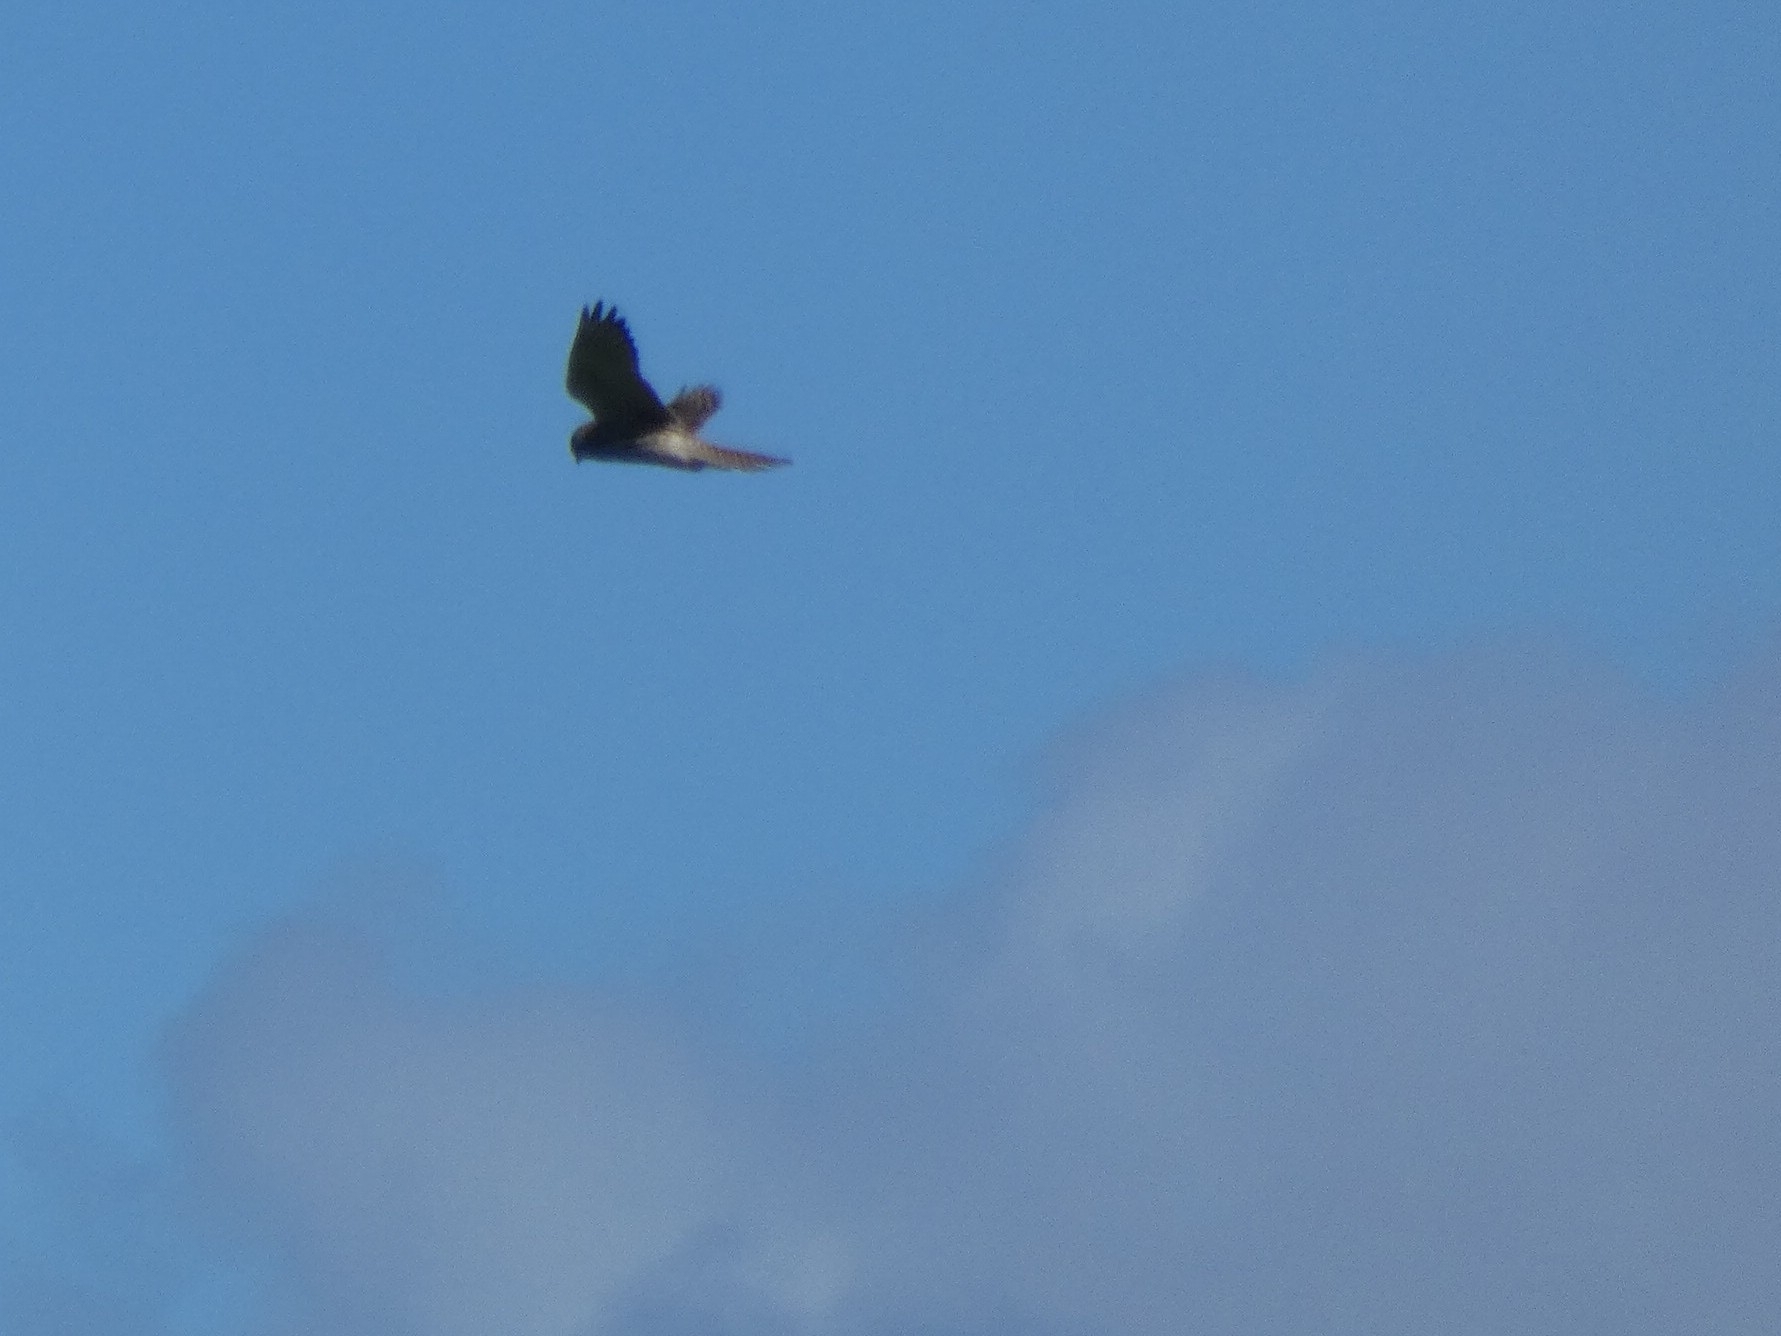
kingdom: Animalia
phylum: Chordata
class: Aves
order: Falconiformes
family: Falconidae
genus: Falco
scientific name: Falco tinnunculus
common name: Common kestrel
